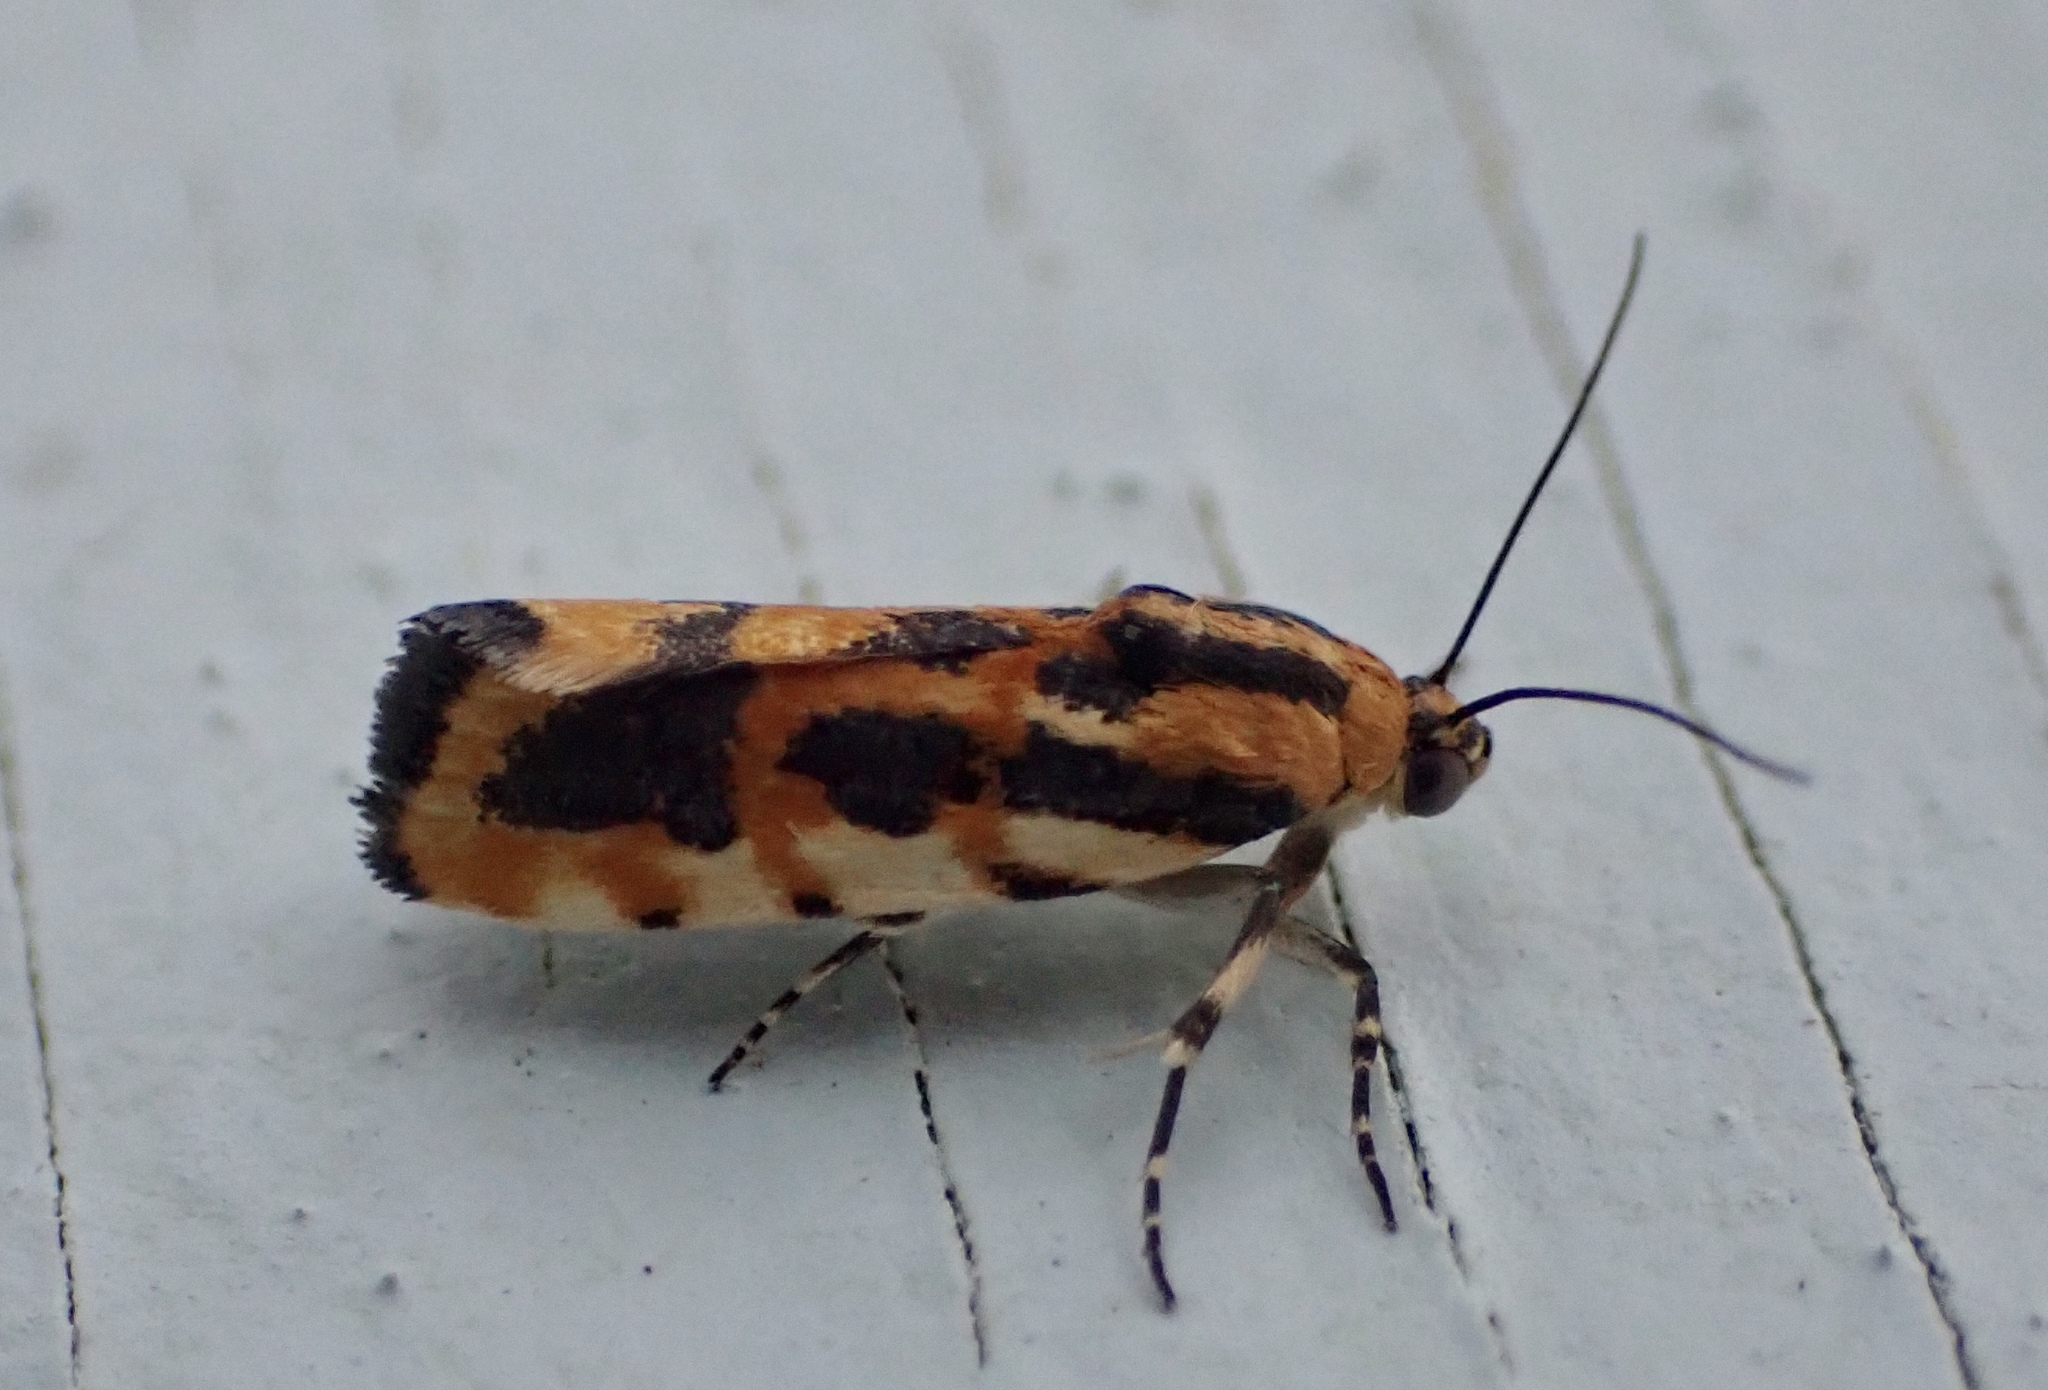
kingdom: Animalia
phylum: Arthropoda
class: Insecta
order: Lepidoptera
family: Noctuidae
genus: Acontia
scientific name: Acontia leo
